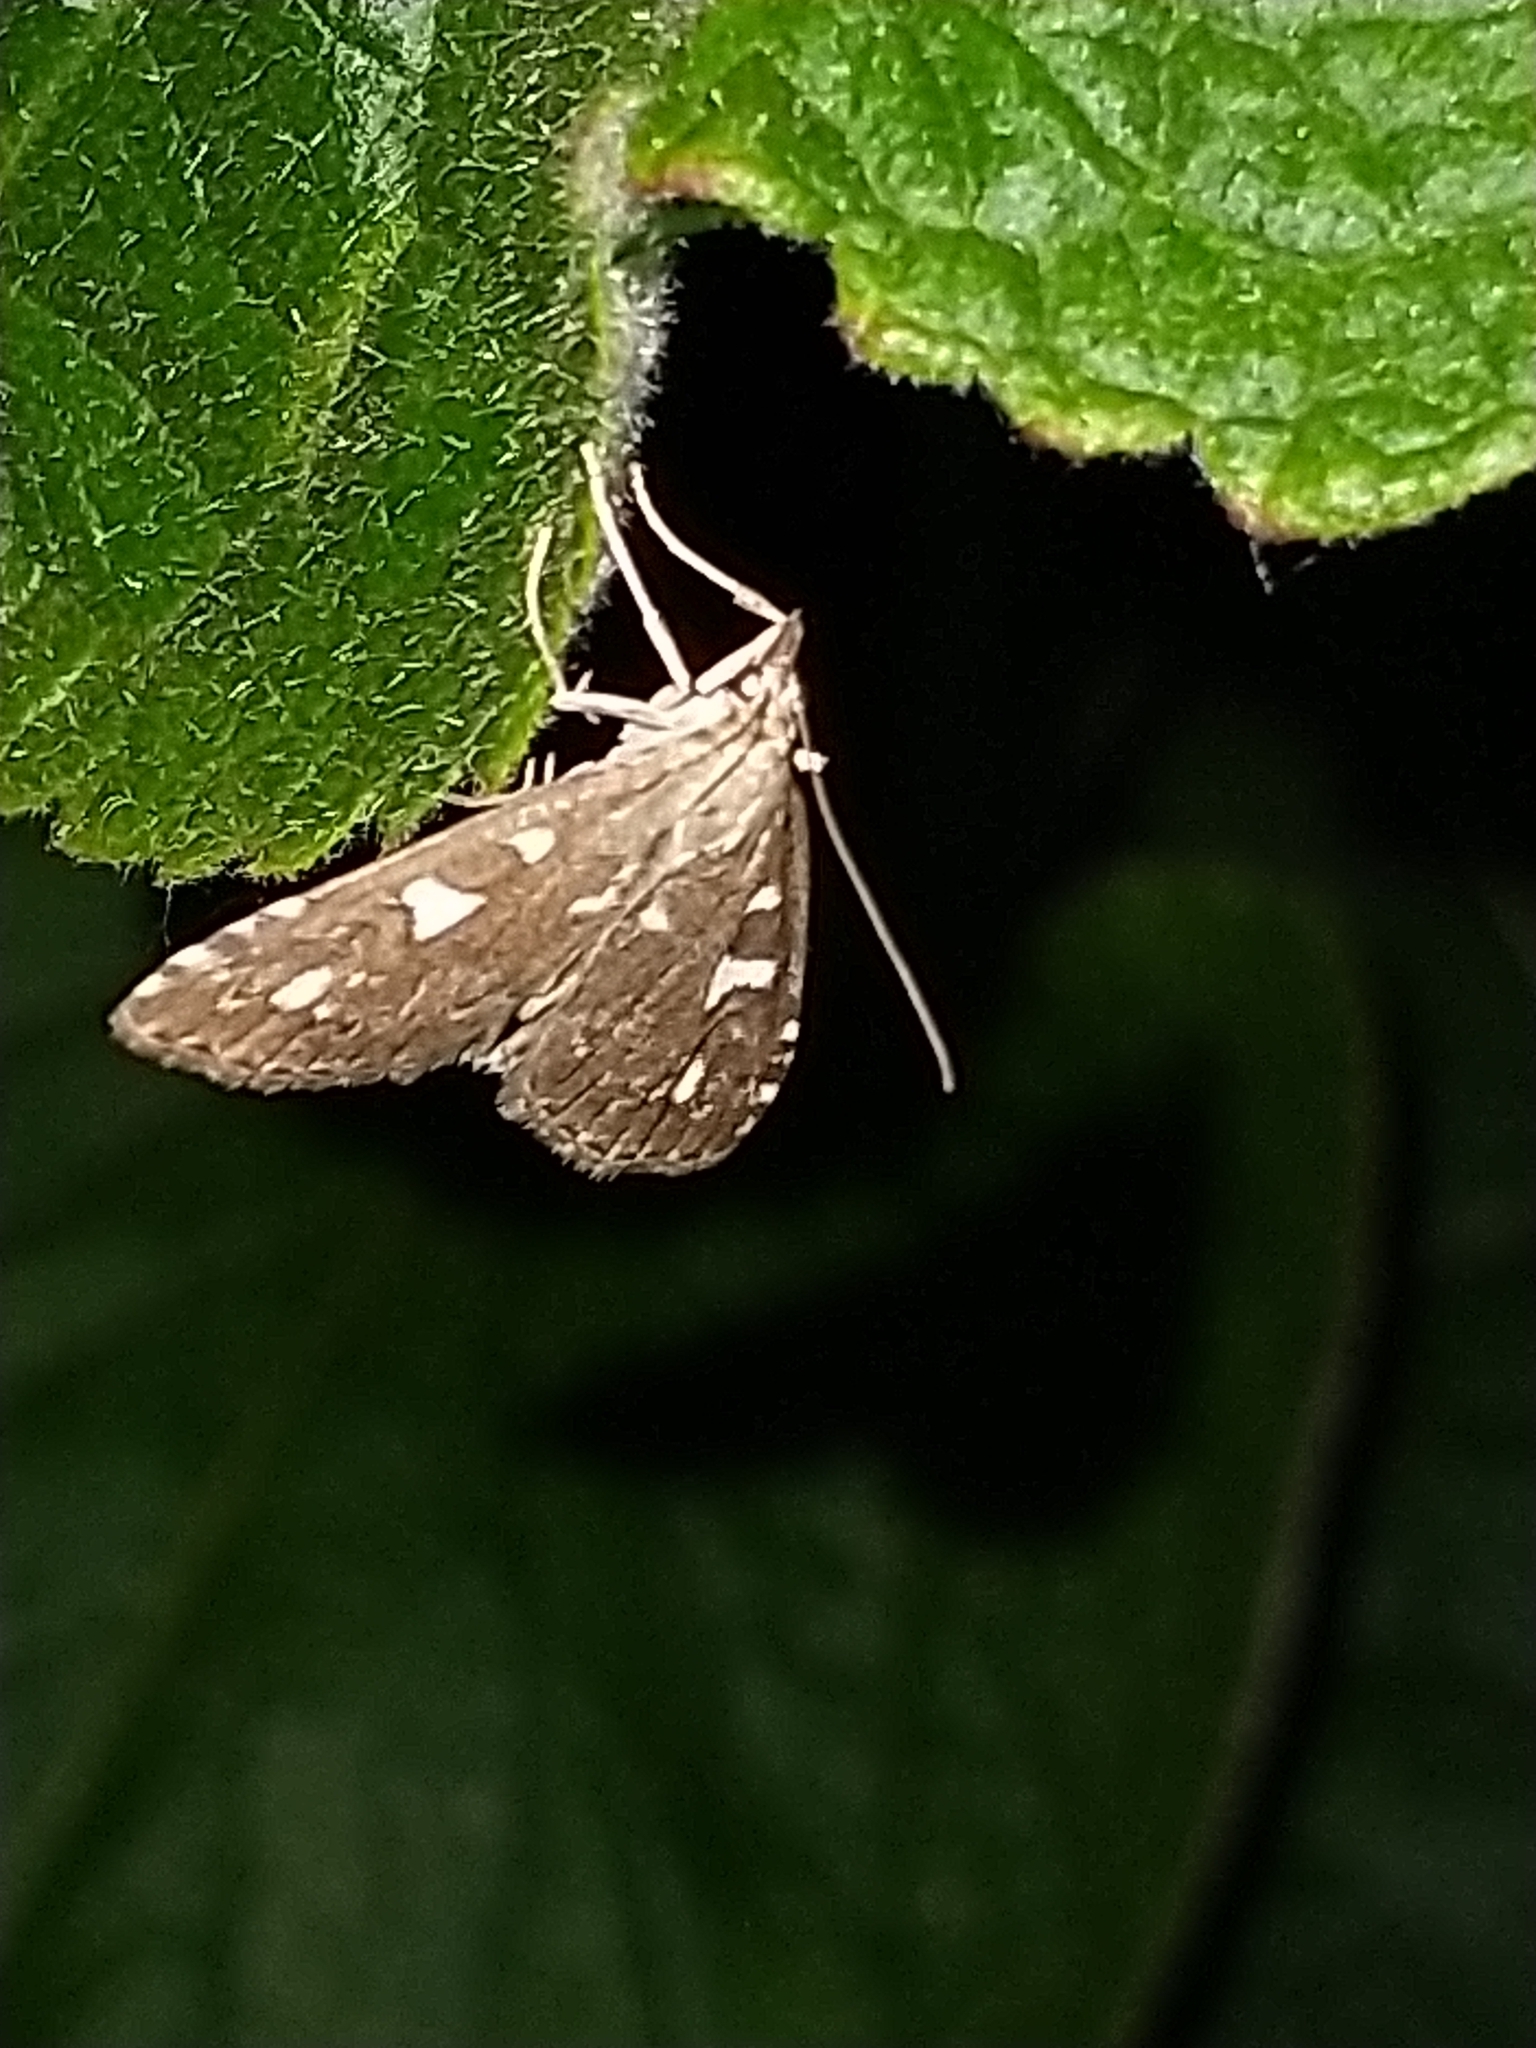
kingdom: Animalia
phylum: Arthropoda
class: Insecta
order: Lepidoptera
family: Crambidae
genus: Udea
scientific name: Udea olivalis
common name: Olive pearl
